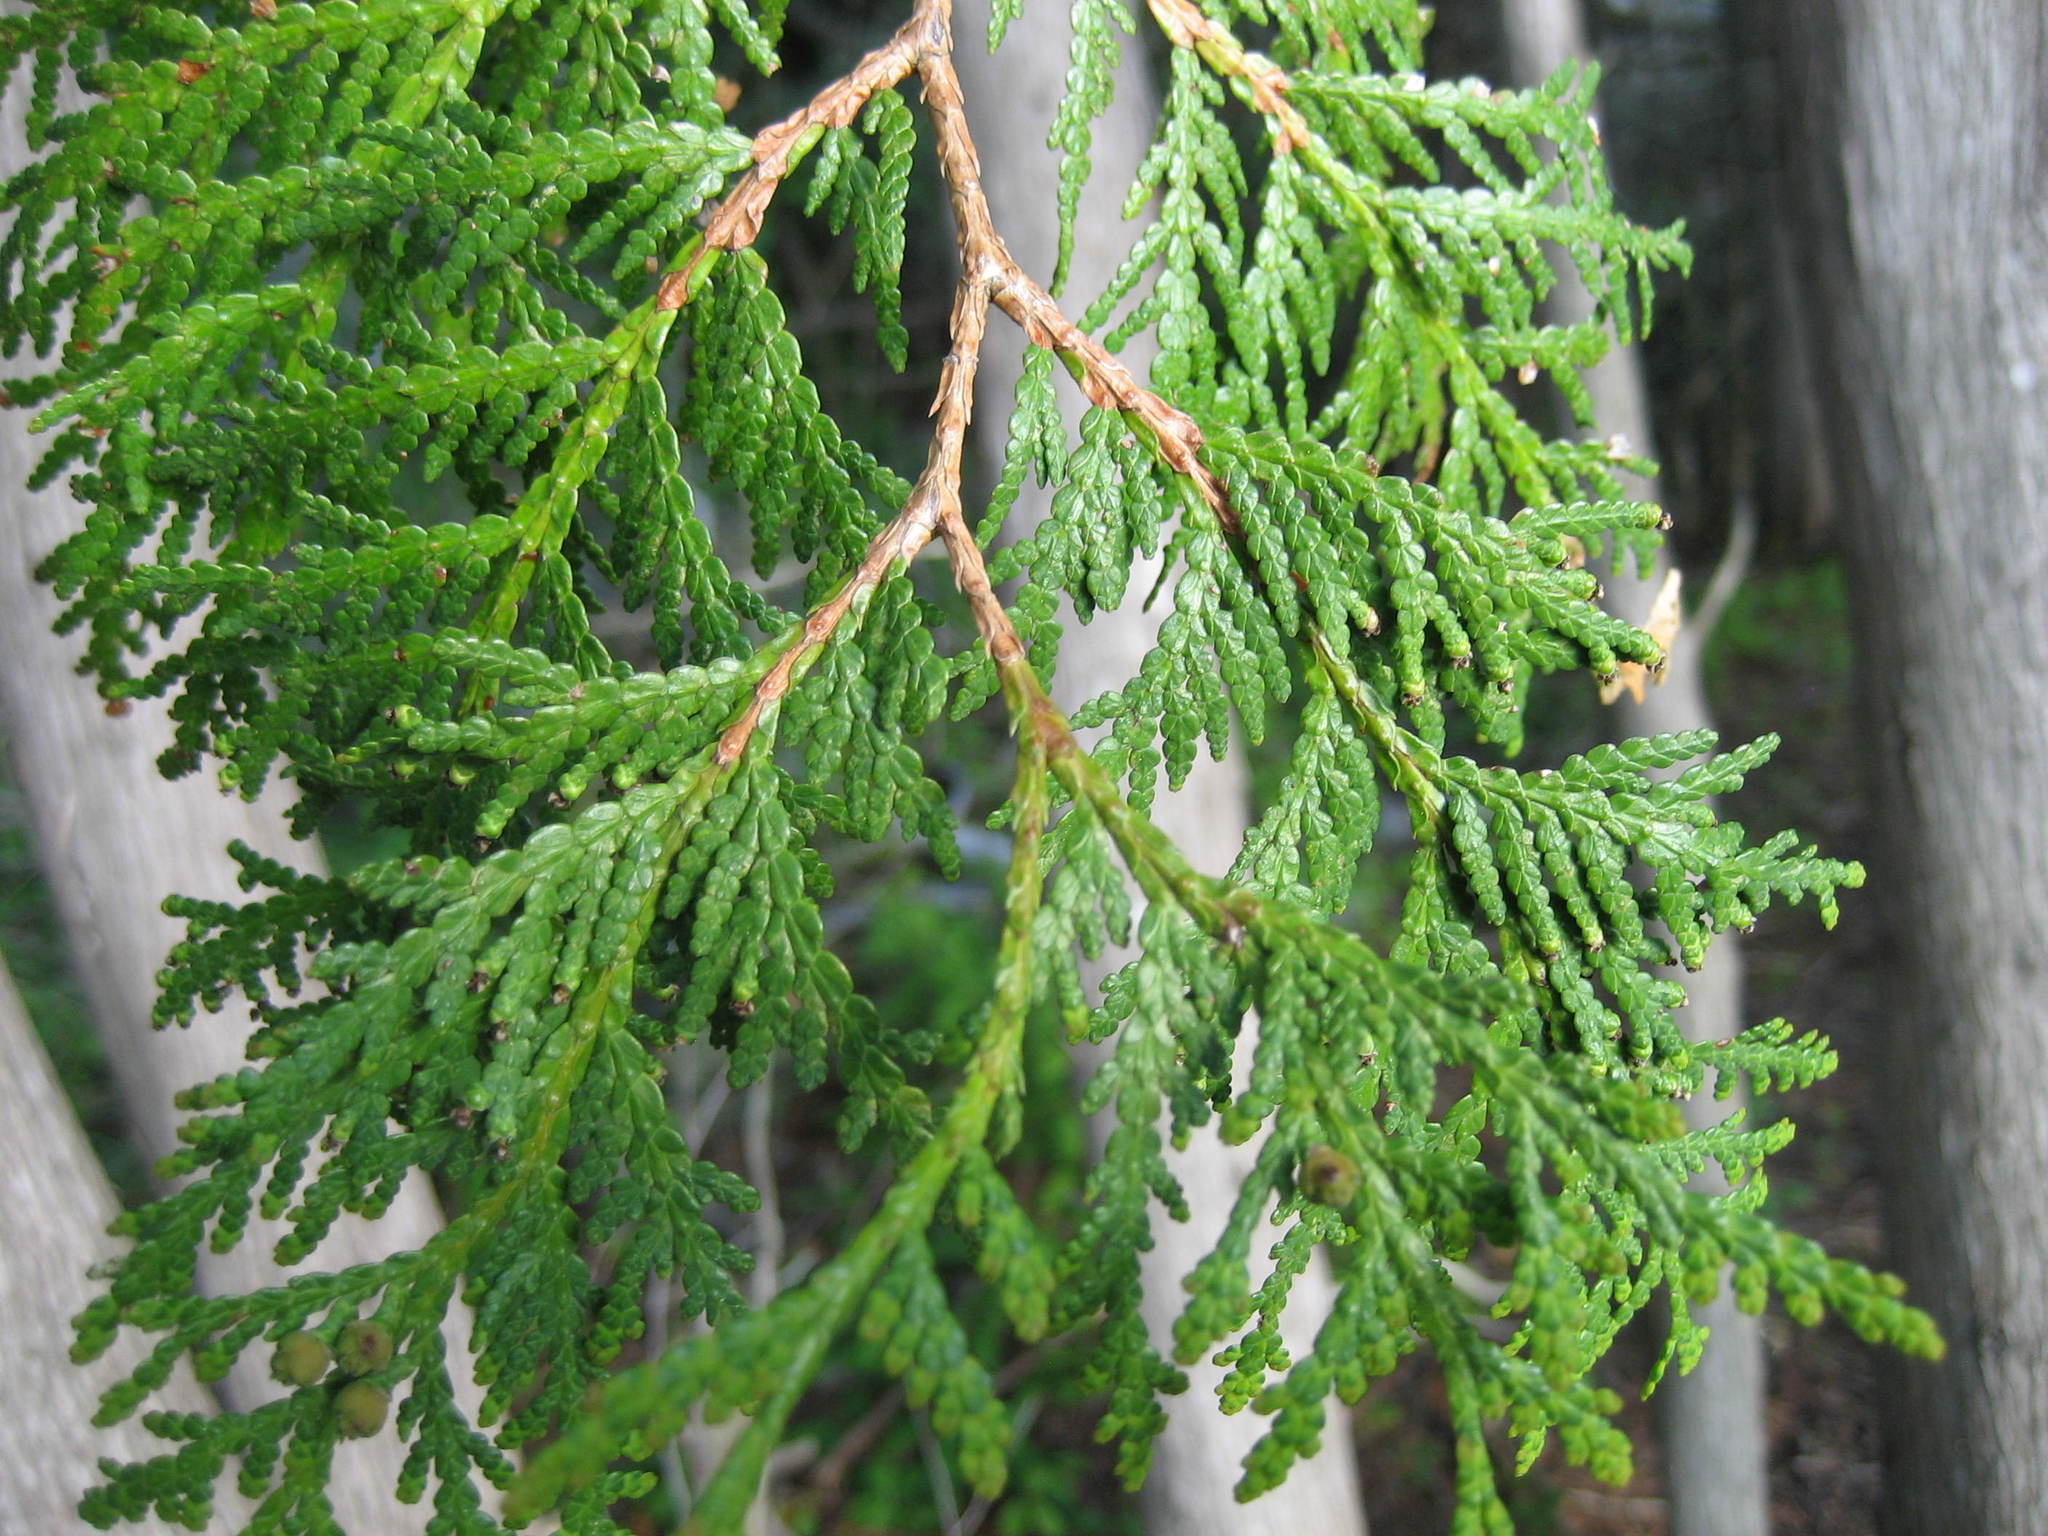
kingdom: Plantae
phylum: Tracheophyta
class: Pinopsida
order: Pinales
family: Cupressaceae
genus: Thuja
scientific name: Thuja occidentalis
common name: Northern white-cedar
